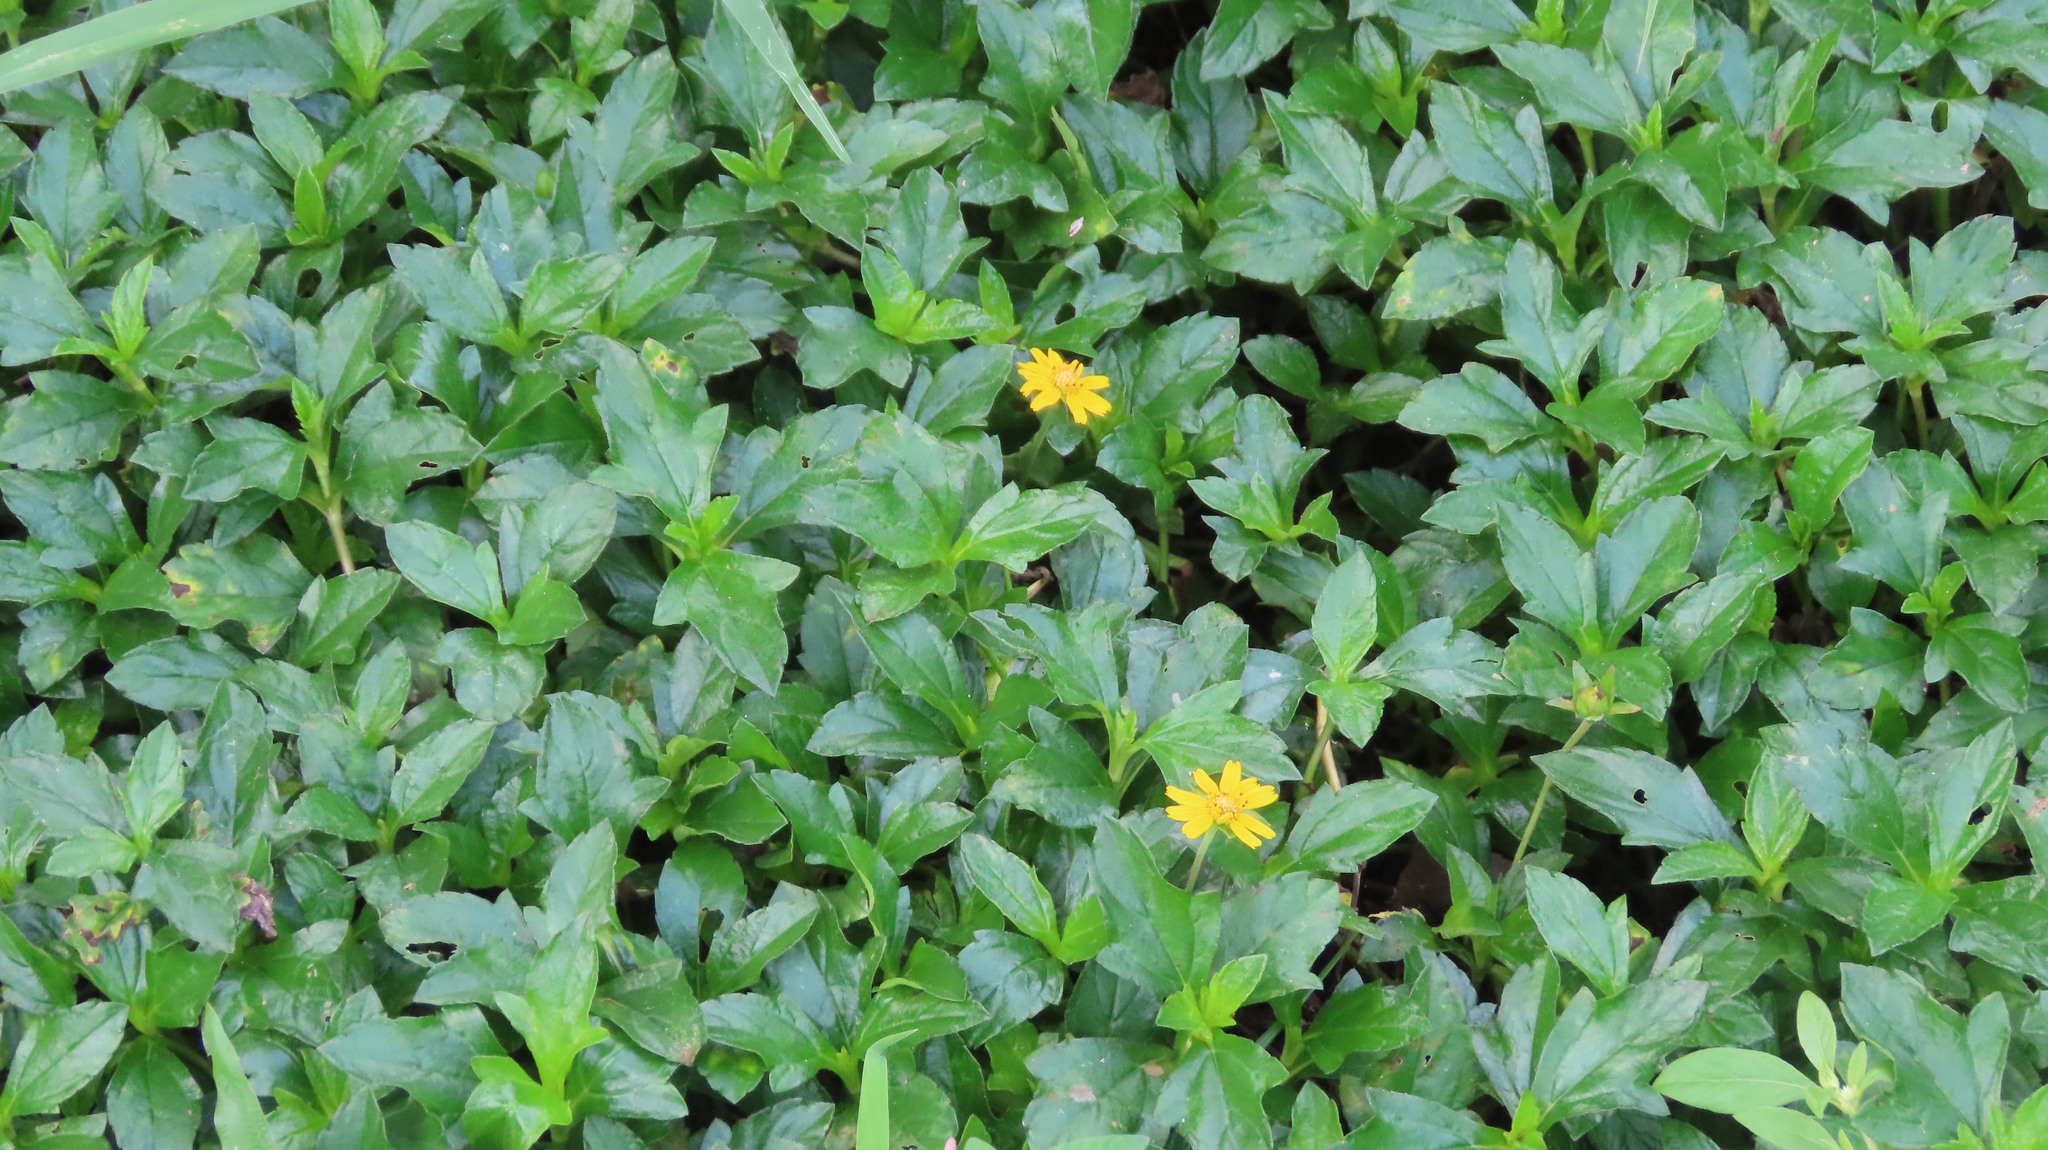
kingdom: Plantae
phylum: Tracheophyta
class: Magnoliopsida
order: Asterales
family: Asteraceae
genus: Sphagneticola
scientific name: Sphagneticola trilobata
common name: Bay biscayne creeping-oxeye
